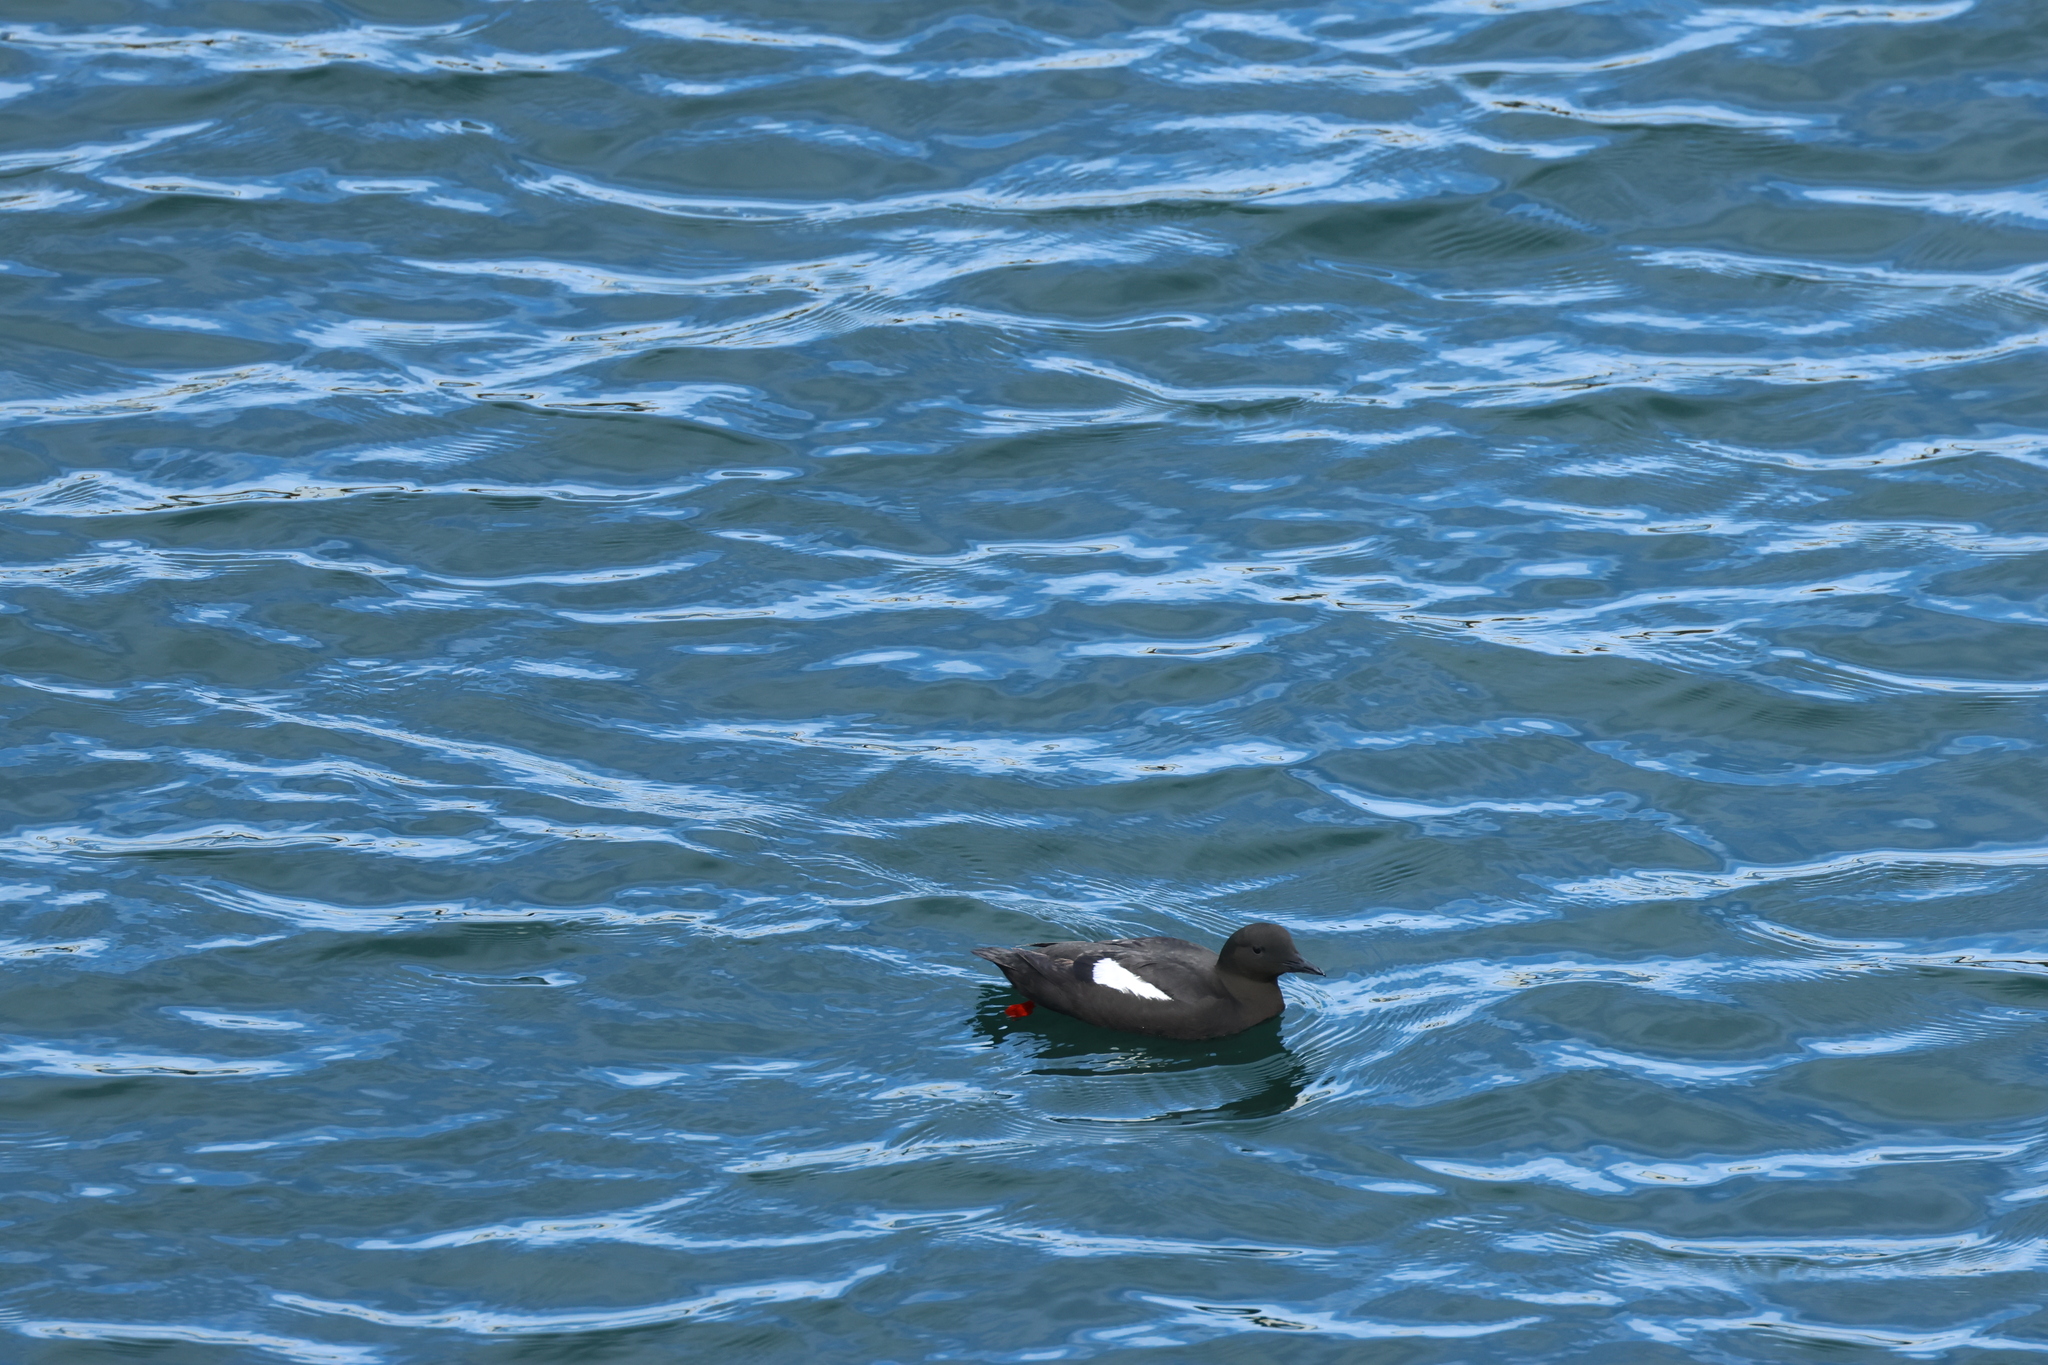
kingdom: Animalia
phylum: Chordata
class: Aves
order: Charadriiformes
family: Alcidae
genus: Cepphus
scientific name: Cepphus grylle
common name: Black guillemot
